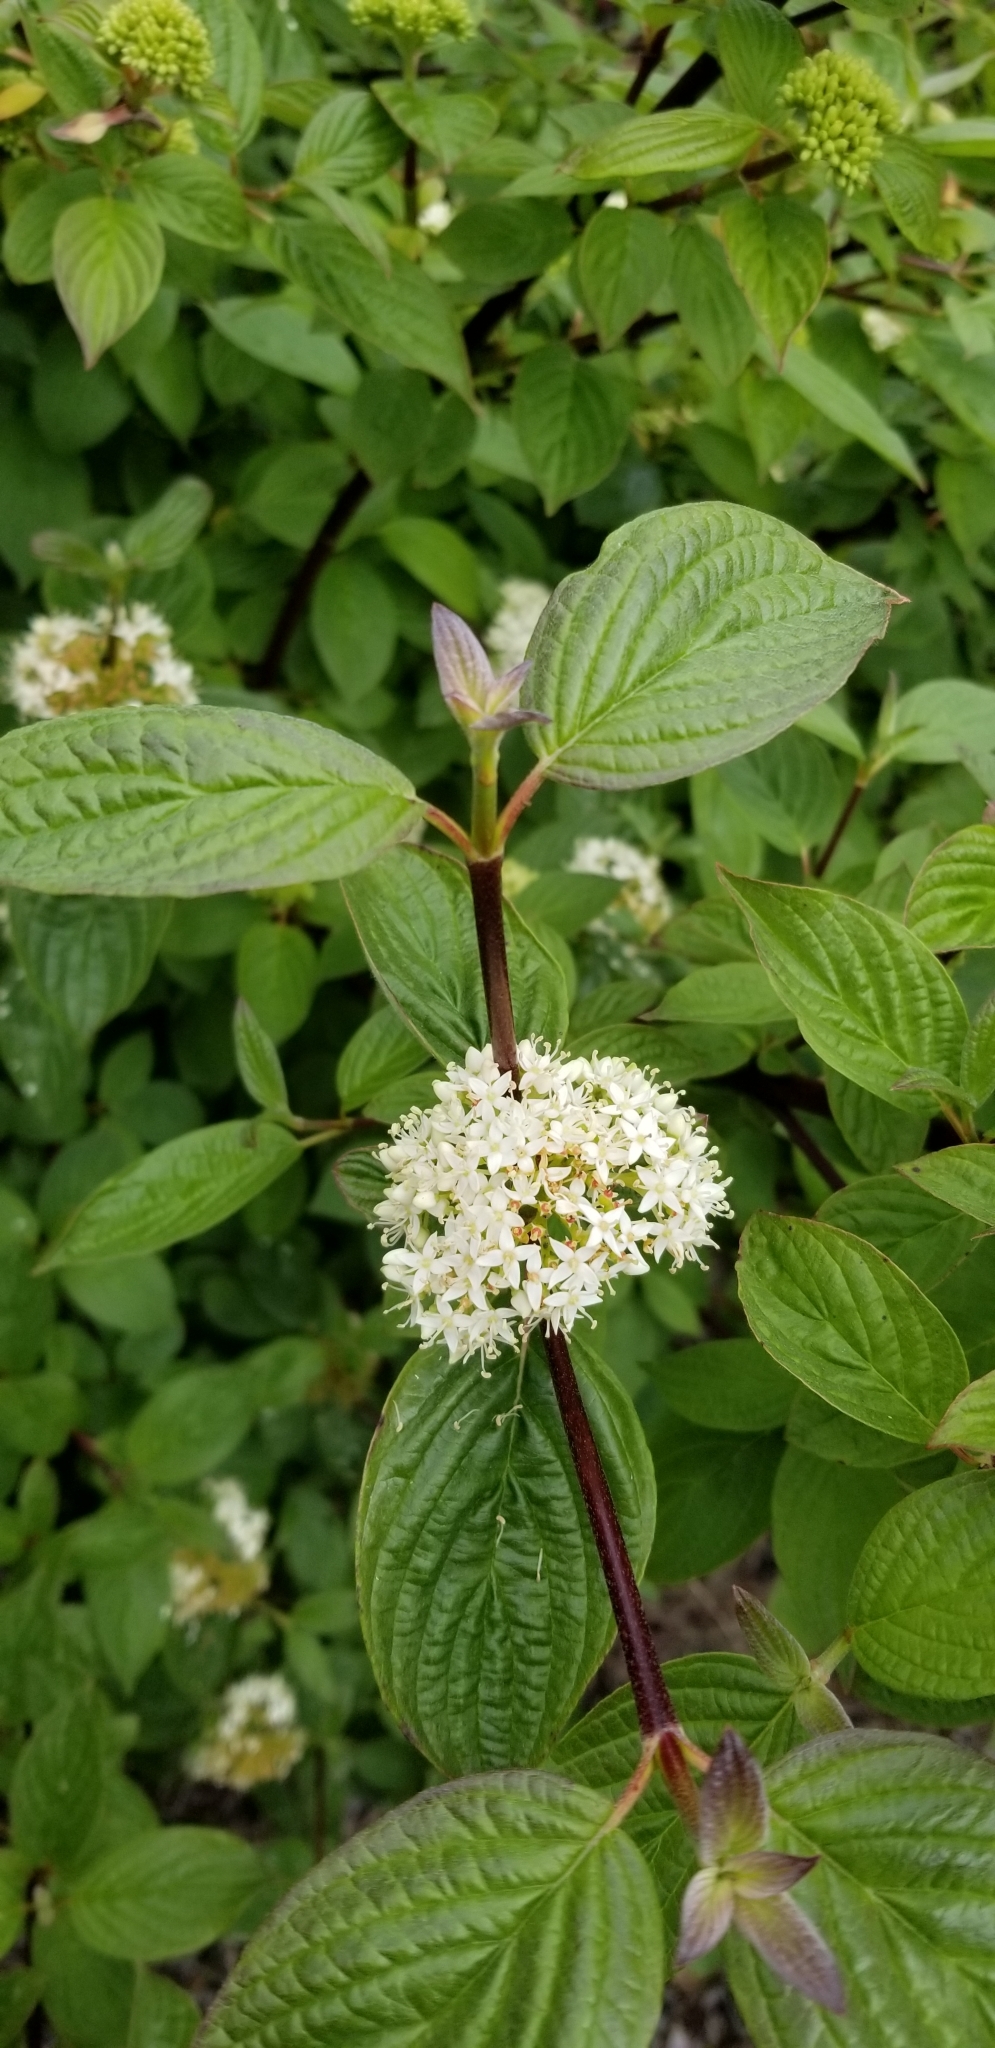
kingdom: Plantae
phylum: Tracheophyta
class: Magnoliopsida
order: Cornales
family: Cornaceae
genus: Cornus
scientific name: Cornus sericea
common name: Red-osier dogwood
